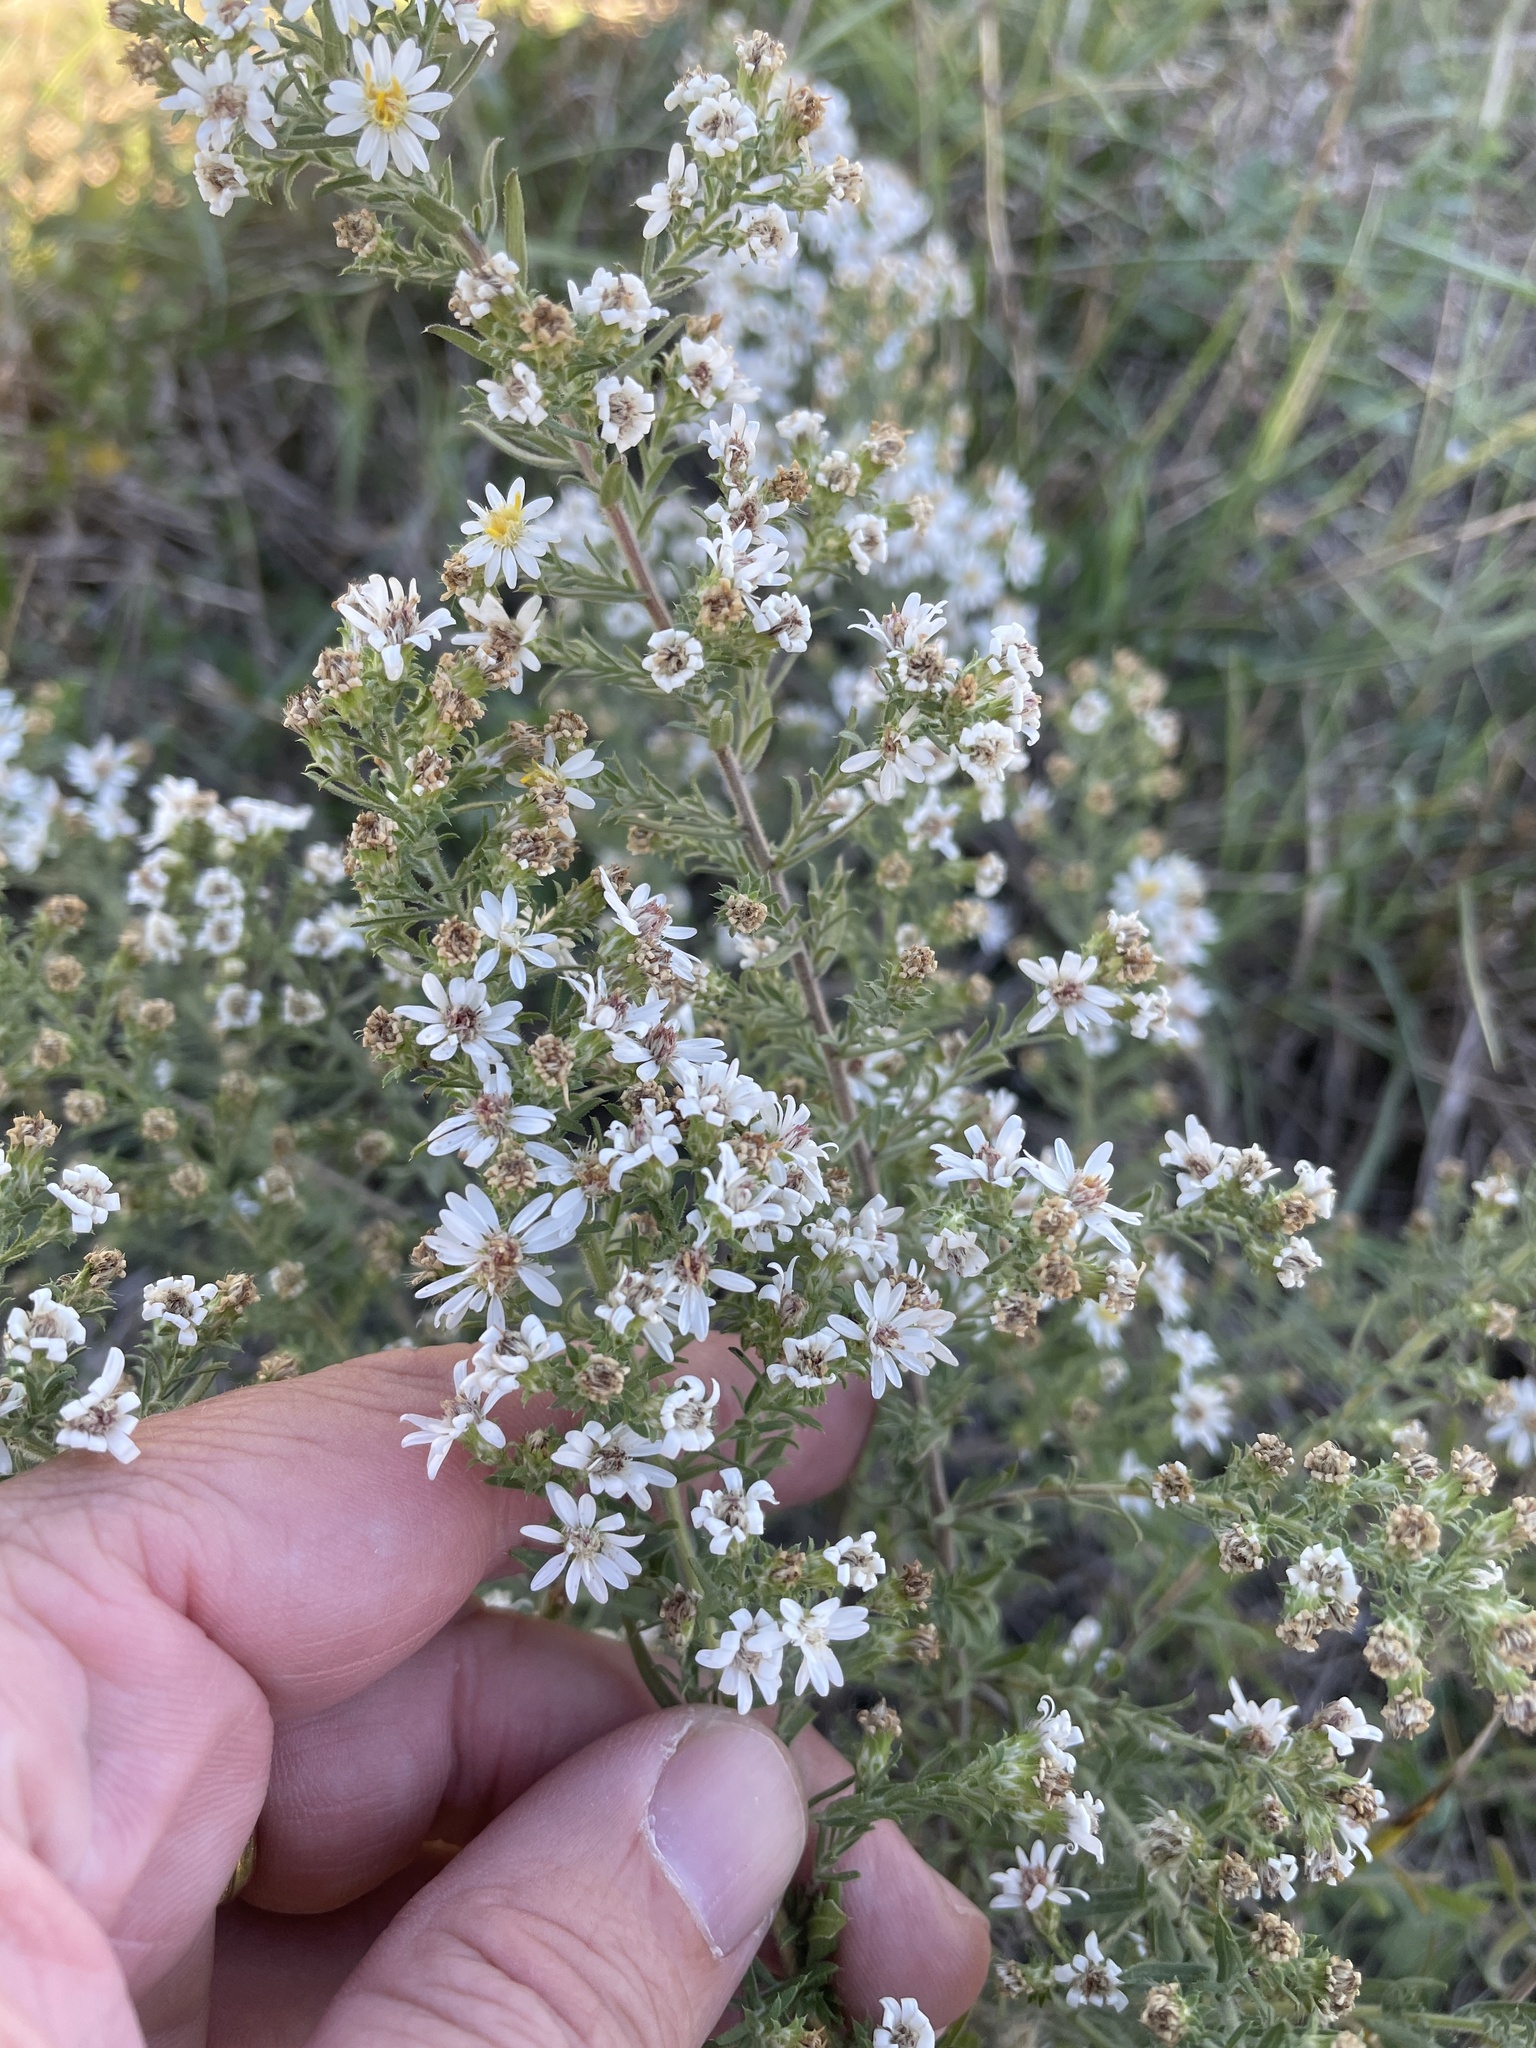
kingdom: Plantae
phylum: Tracheophyta
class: Magnoliopsida
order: Asterales
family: Asteraceae
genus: Symphyotrichum
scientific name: Symphyotrichum ericoides
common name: Heath aster
